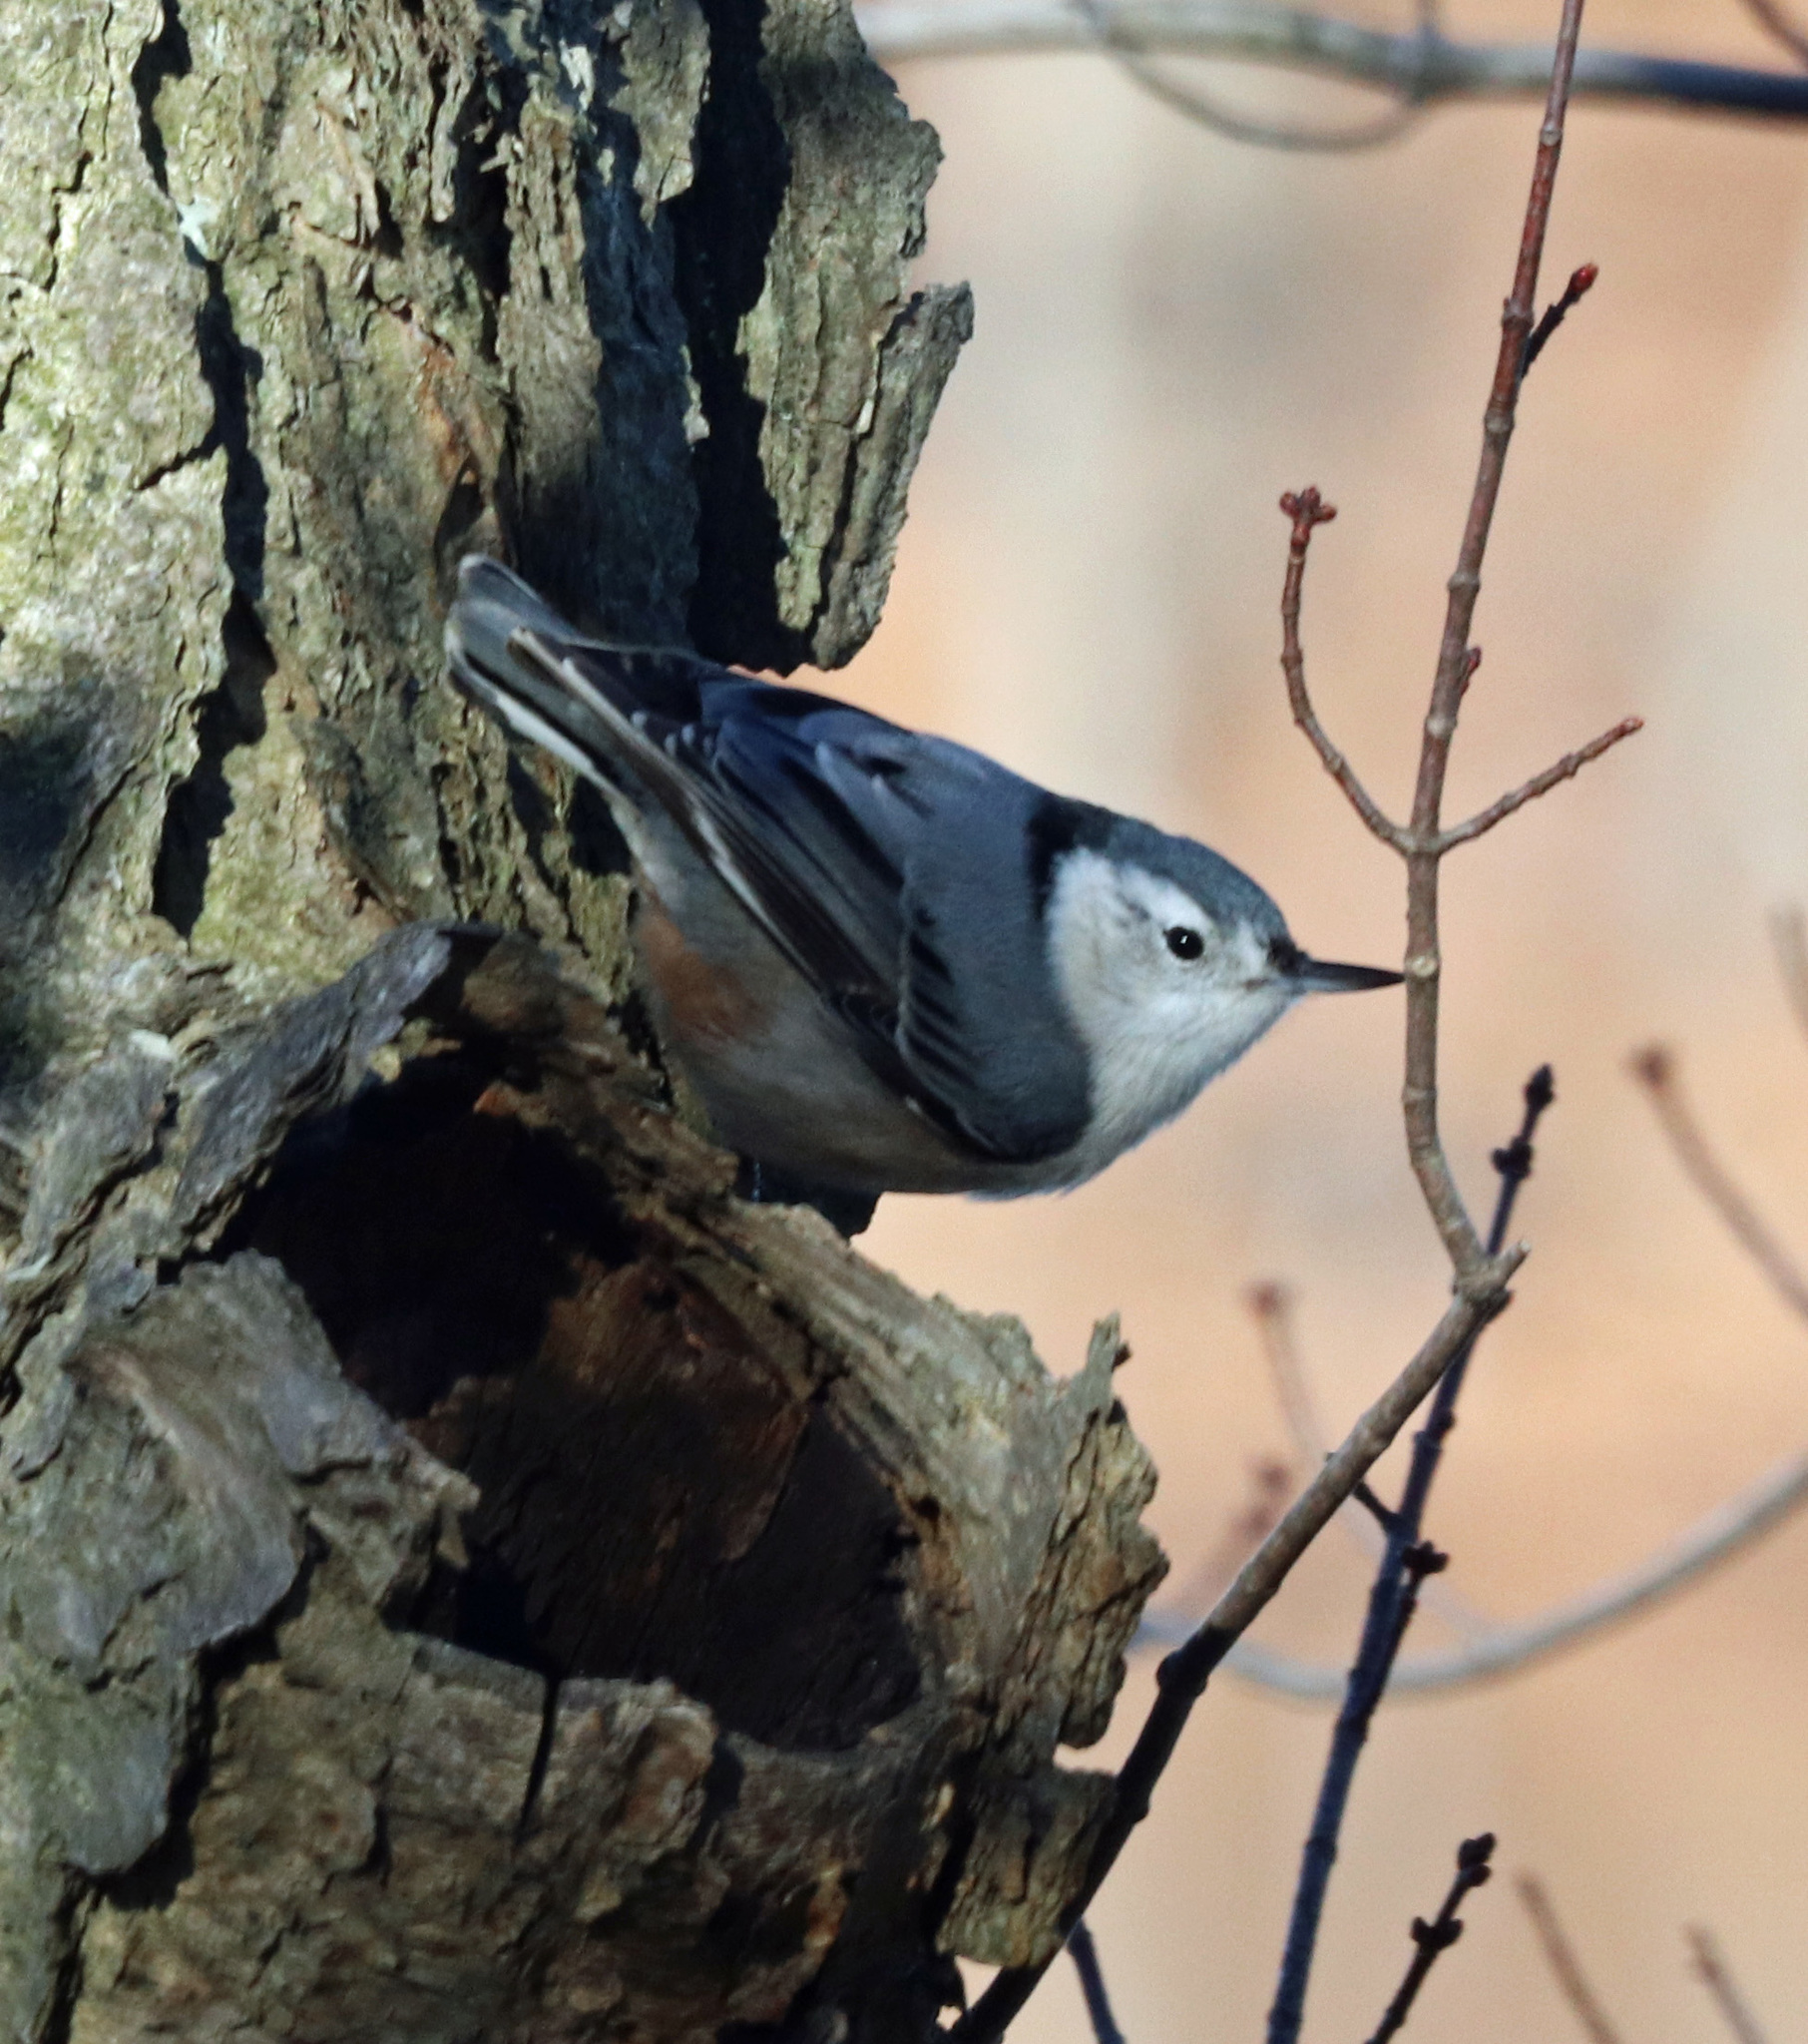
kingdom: Animalia
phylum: Chordata
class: Aves
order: Passeriformes
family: Sittidae
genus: Sitta
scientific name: Sitta carolinensis
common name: White-breasted nuthatch
